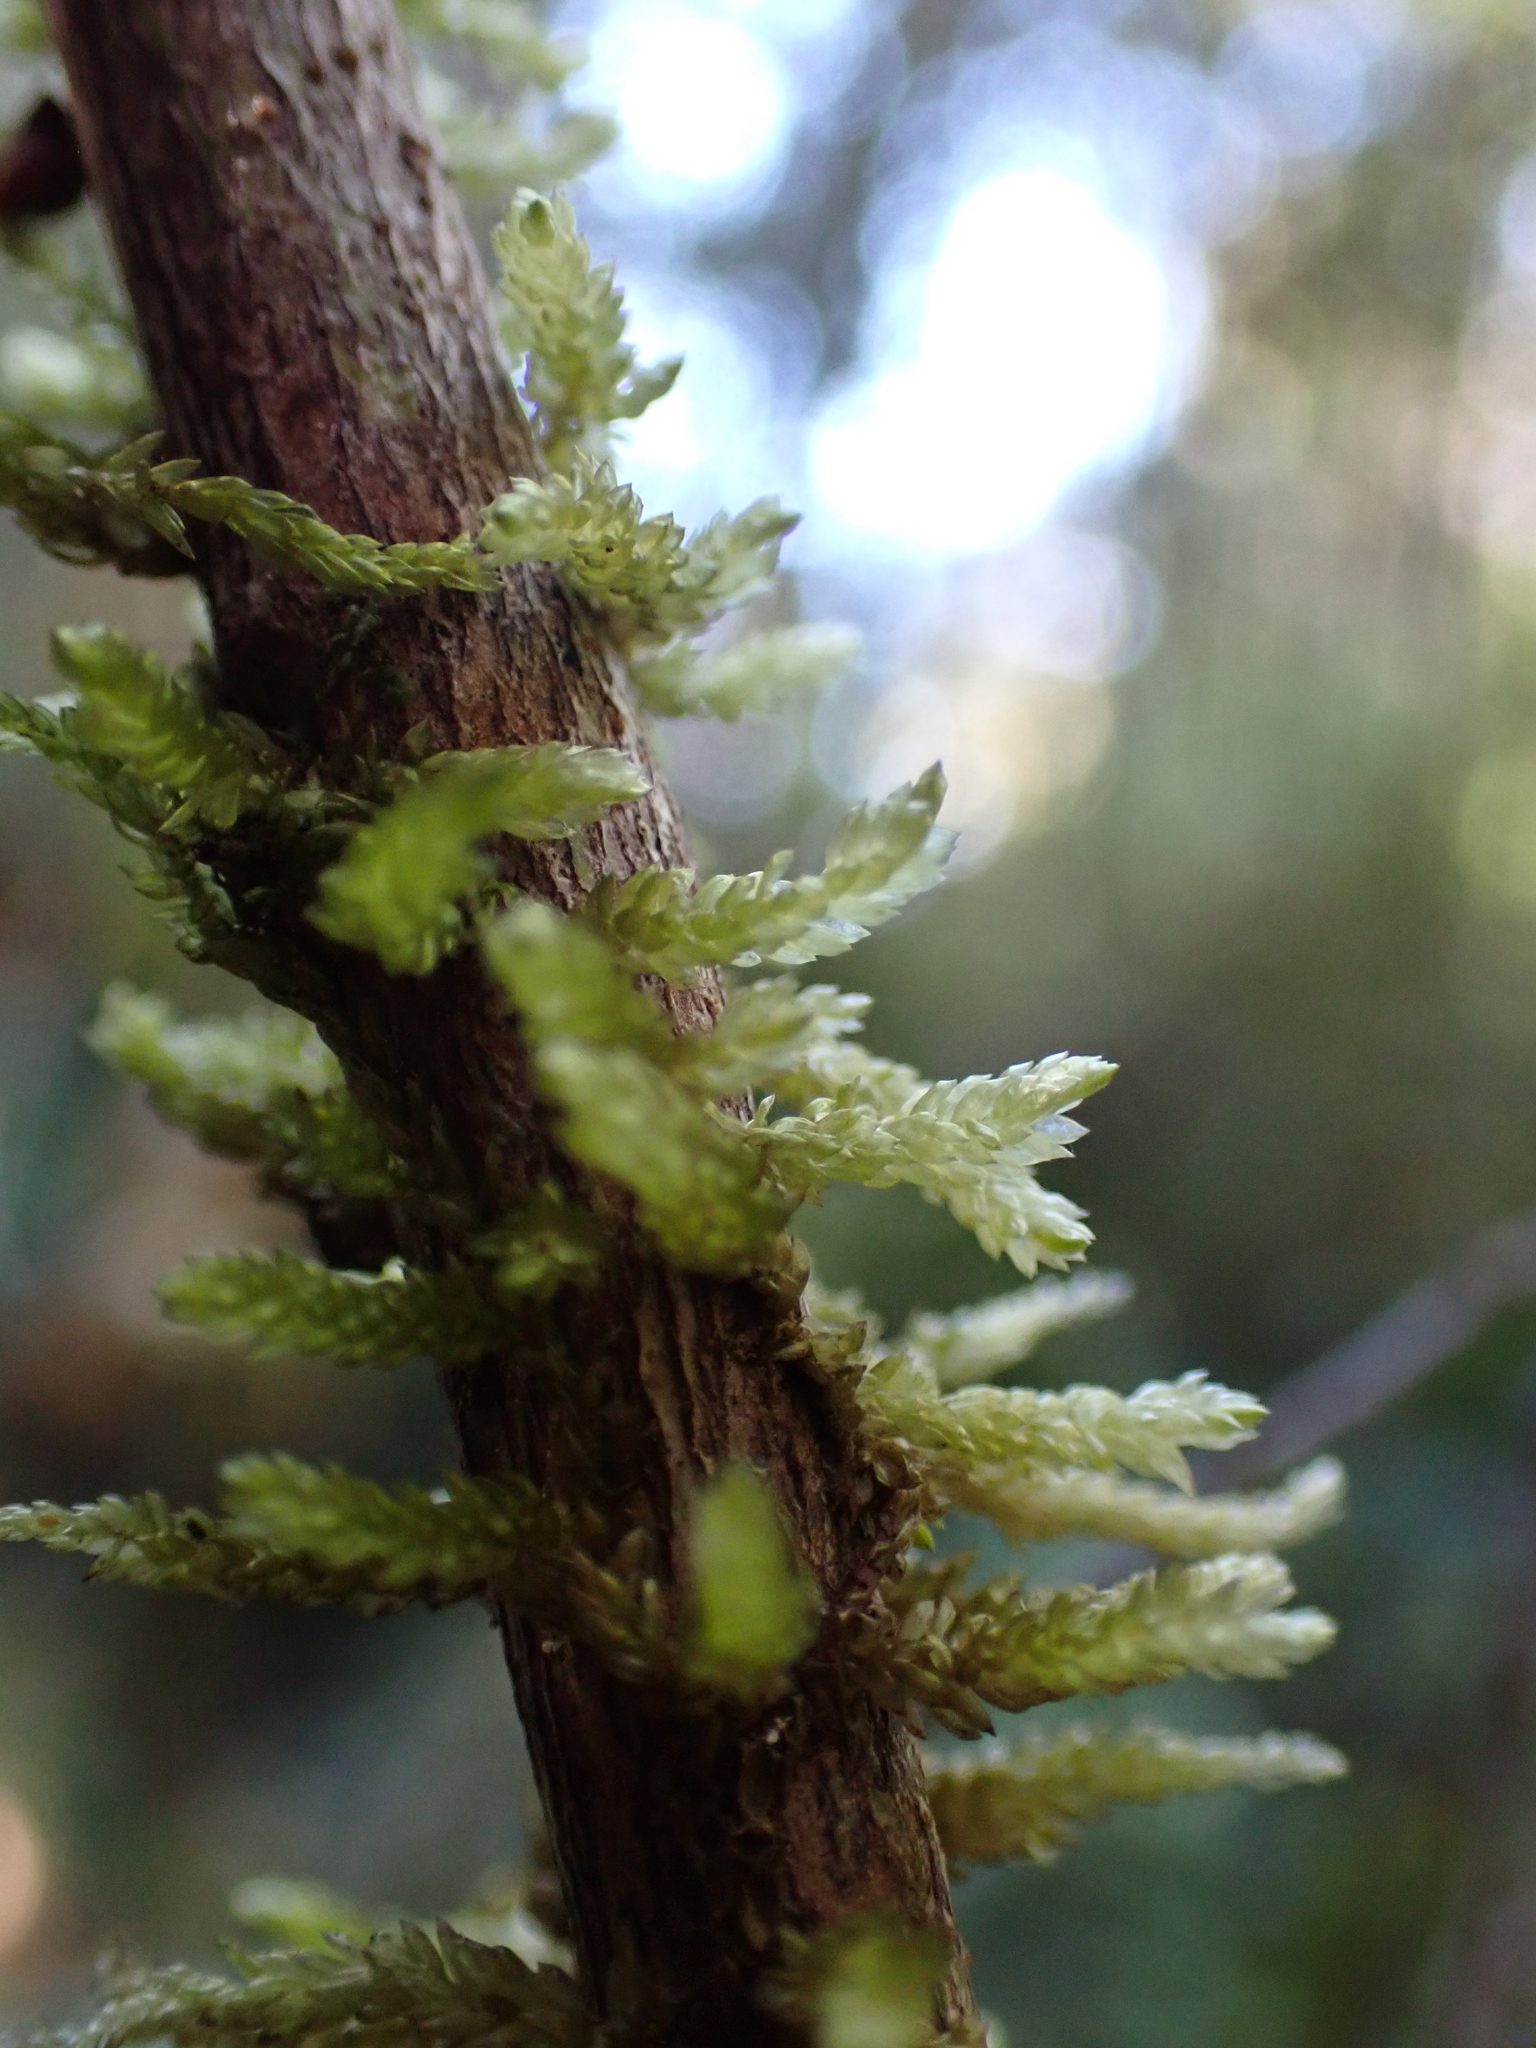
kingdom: Plantae
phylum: Bryophyta
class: Bryopsida
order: Hypnales
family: Lembophyllaceae
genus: Weymouthia
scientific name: Weymouthia mollis
